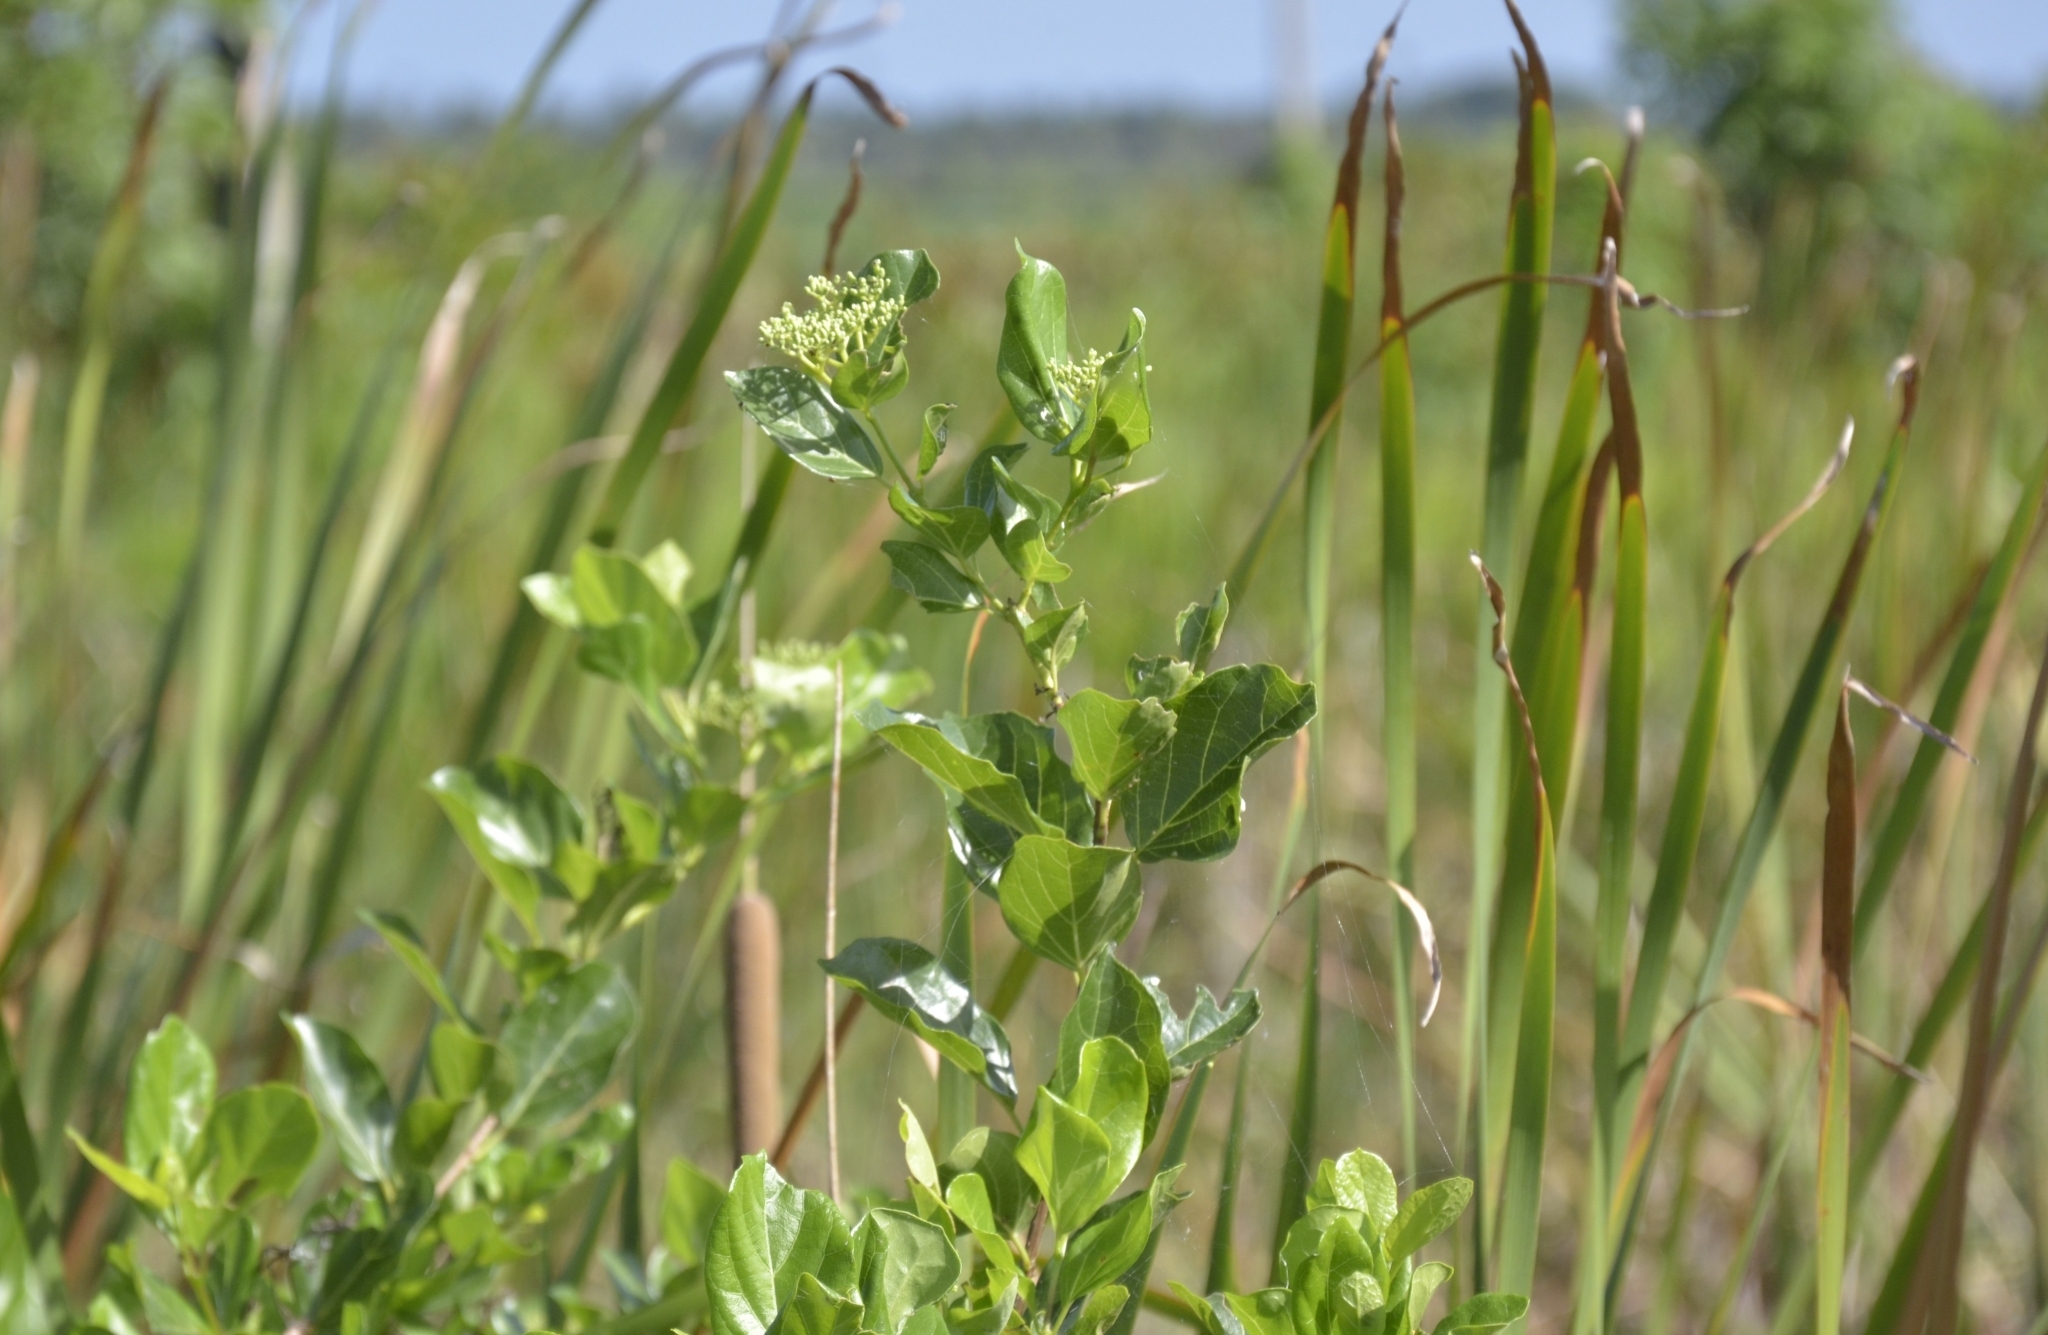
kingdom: Plantae
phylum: Tracheophyta
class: Magnoliopsida
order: Lamiales
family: Lamiaceae
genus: Premna
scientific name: Premna serratifolia
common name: Bastard guelder
